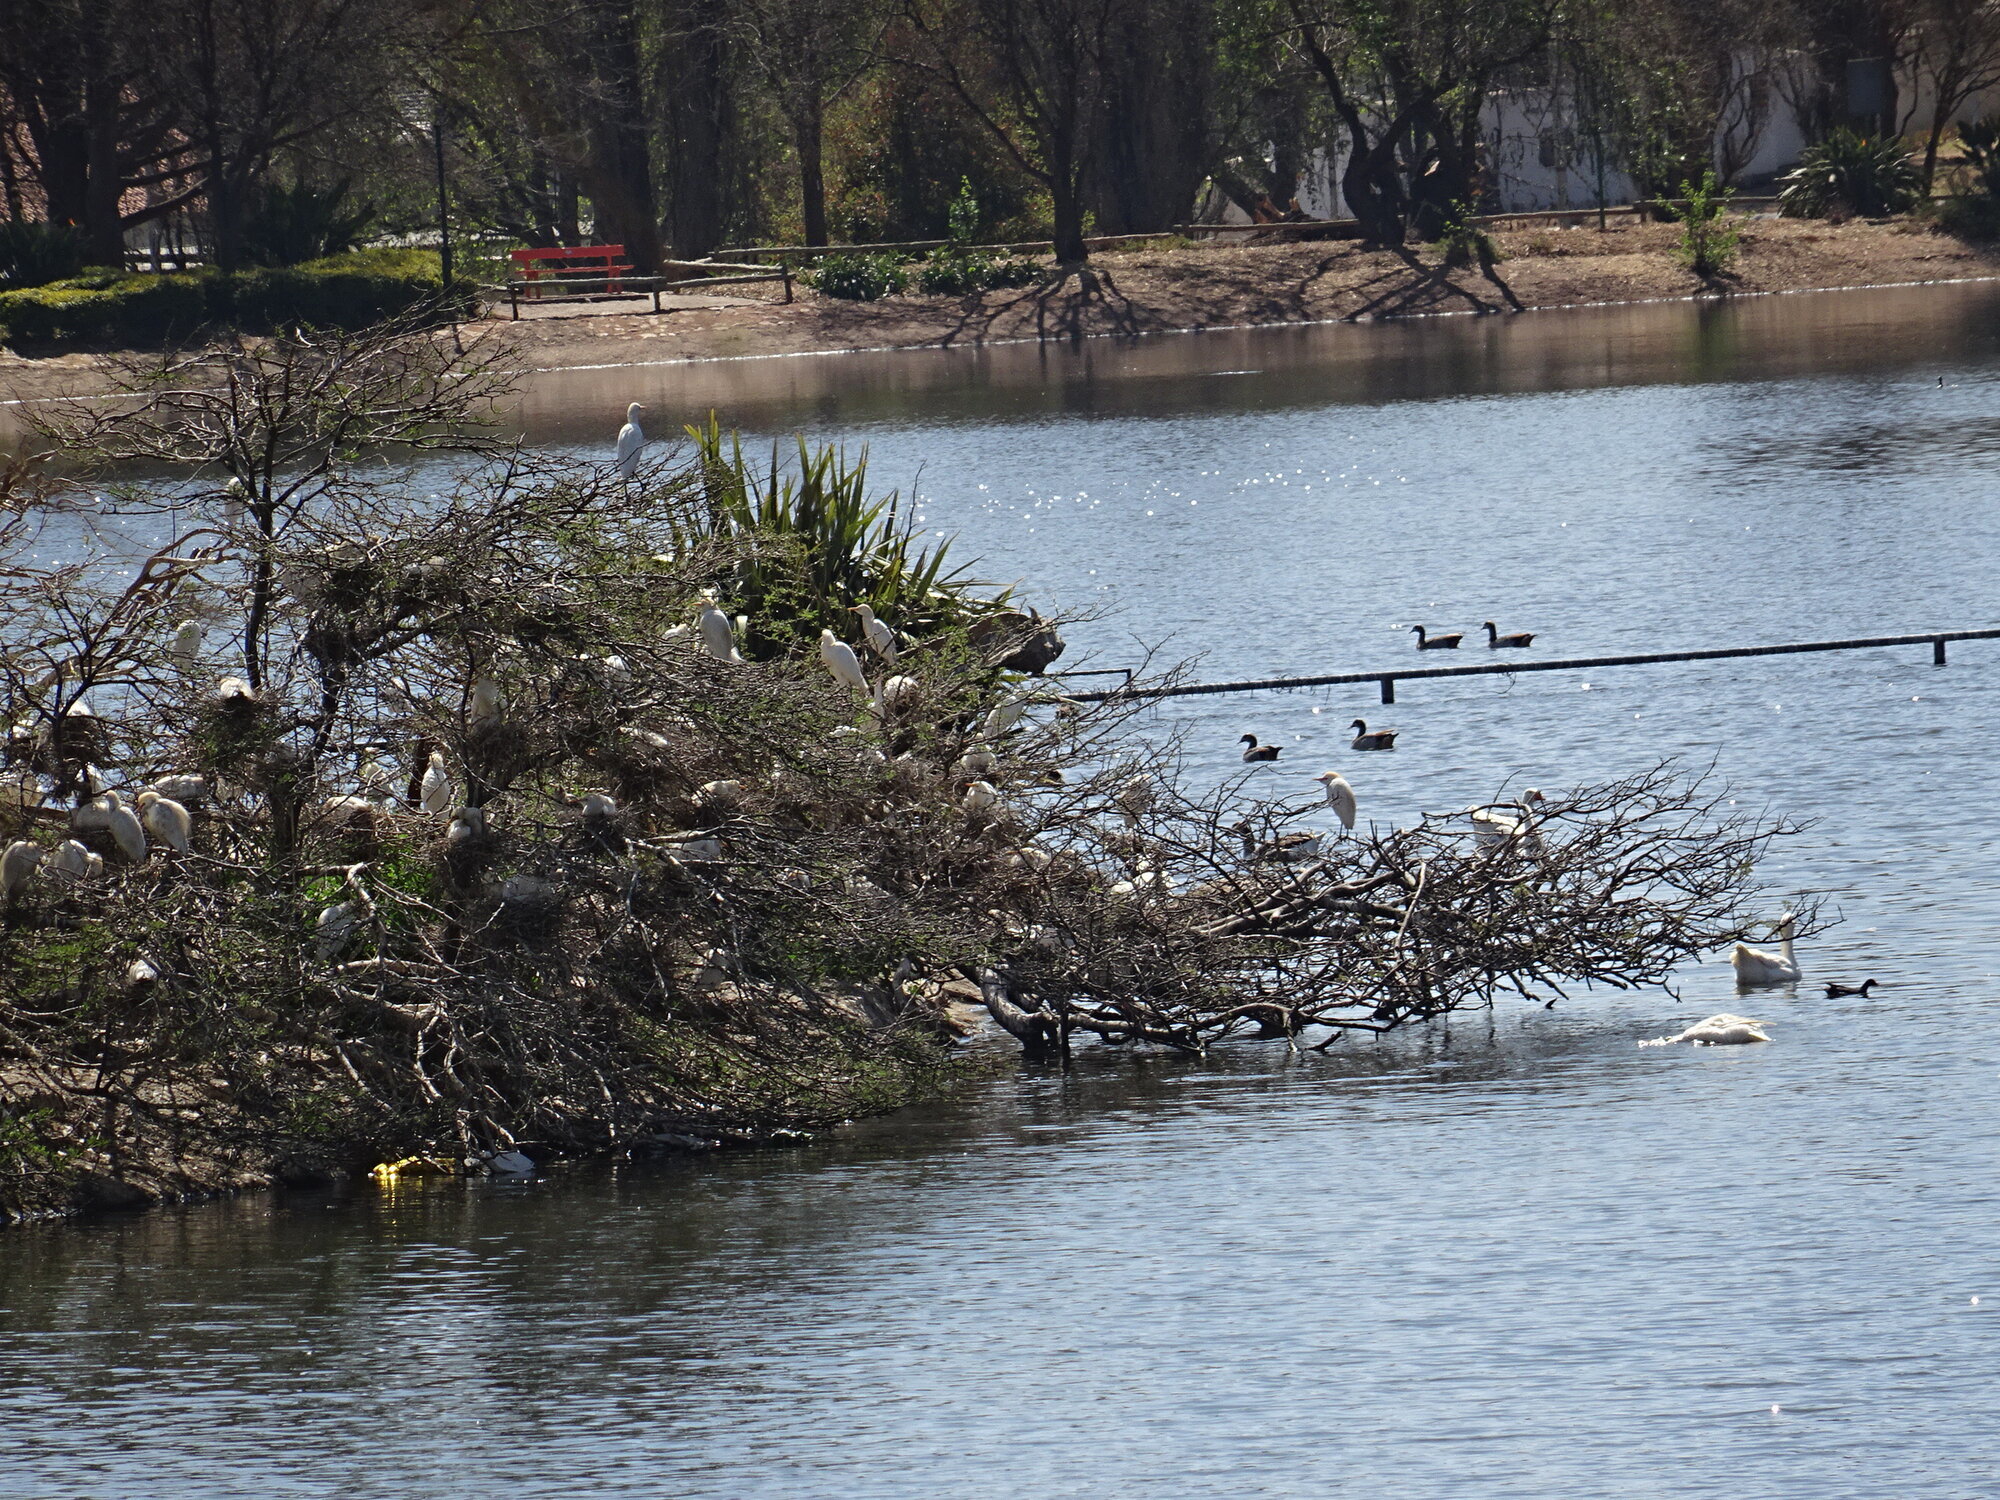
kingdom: Animalia
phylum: Chordata
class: Aves
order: Pelecaniformes
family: Ardeidae
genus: Bubulcus
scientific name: Bubulcus ibis
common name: Cattle egret
